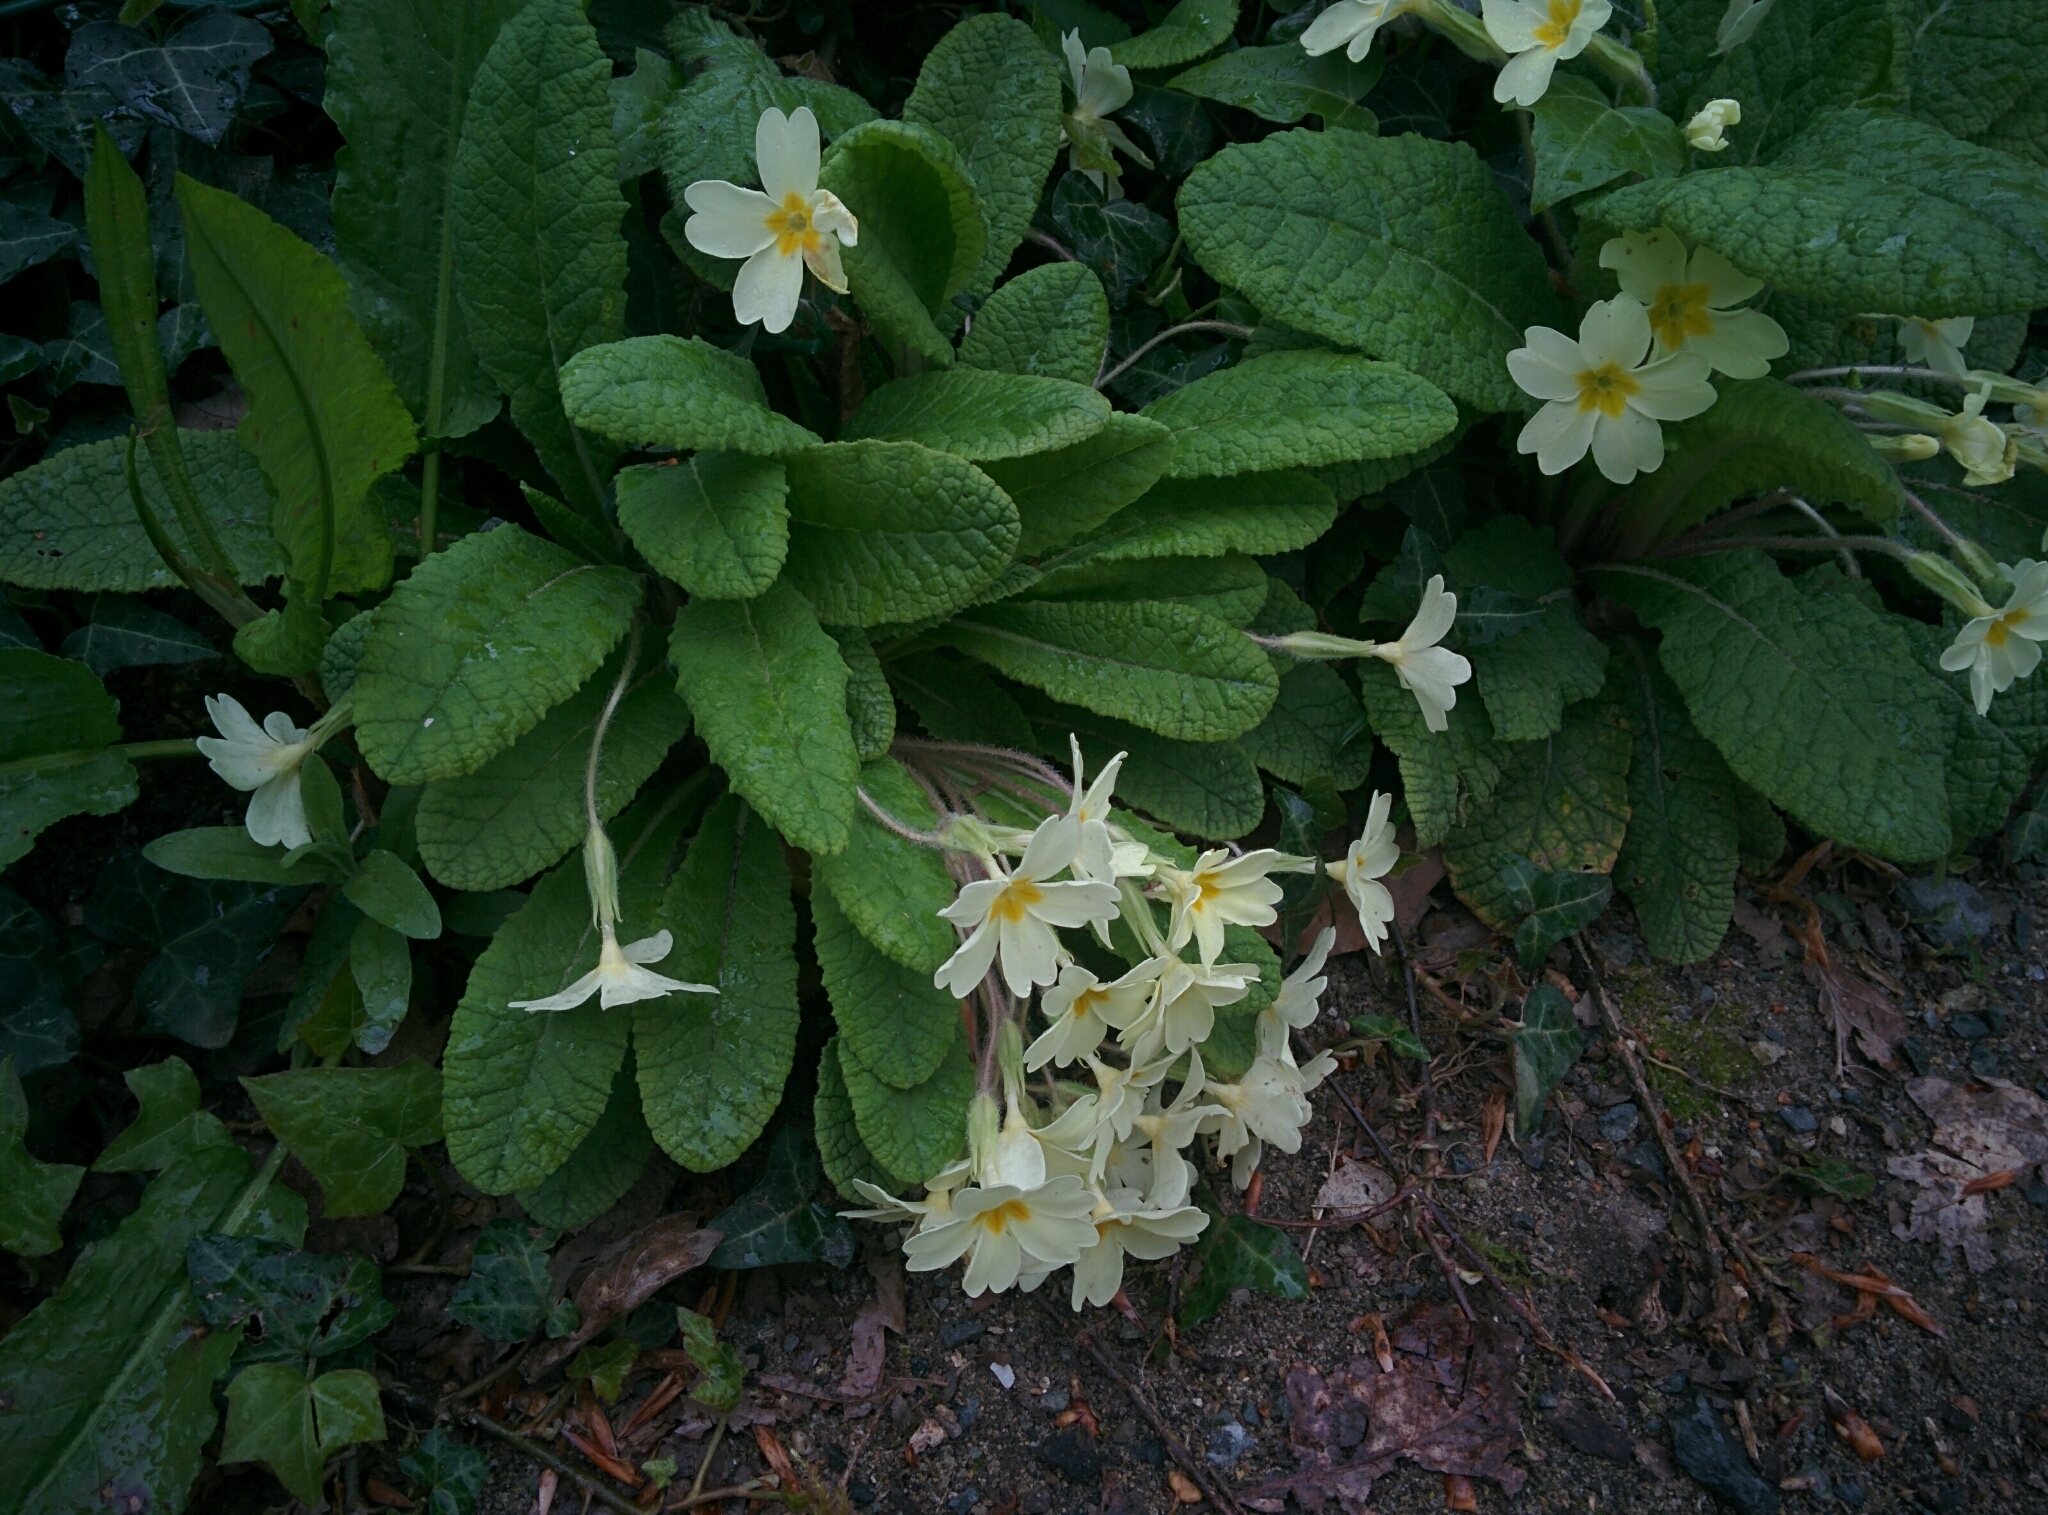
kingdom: Plantae
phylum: Tracheophyta
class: Magnoliopsida
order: Ericales
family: Primulaceae
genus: Primula
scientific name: Primula vulgaris
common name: Primrose
